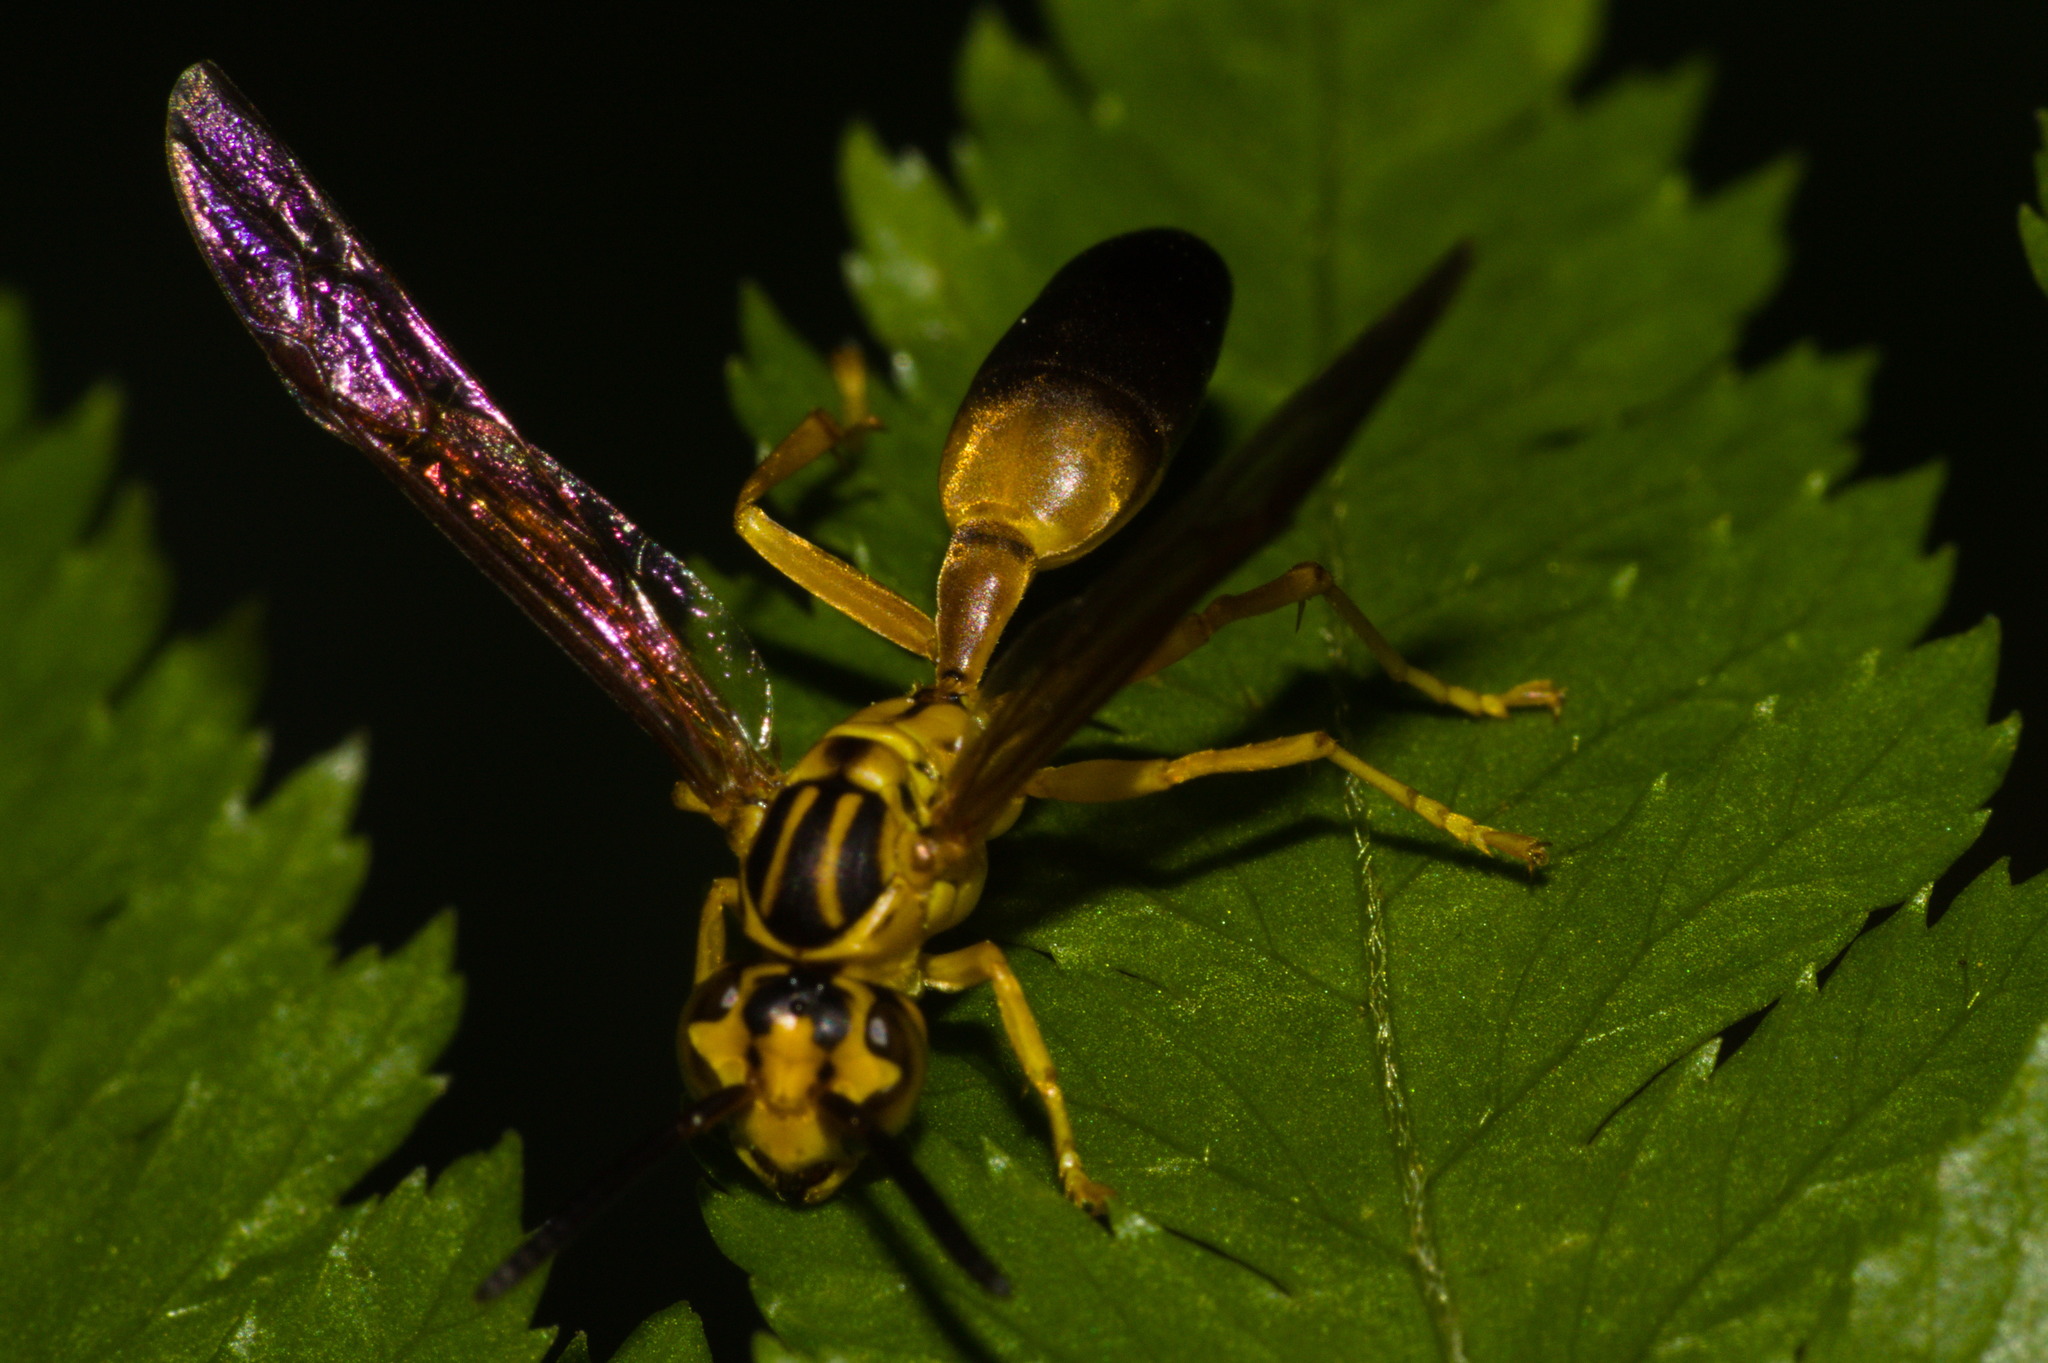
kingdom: Animalia
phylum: Arthropoda
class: Insecta
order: Hymenoptera
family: Vespidae
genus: Agelaia
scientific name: Agelaia pallipes
